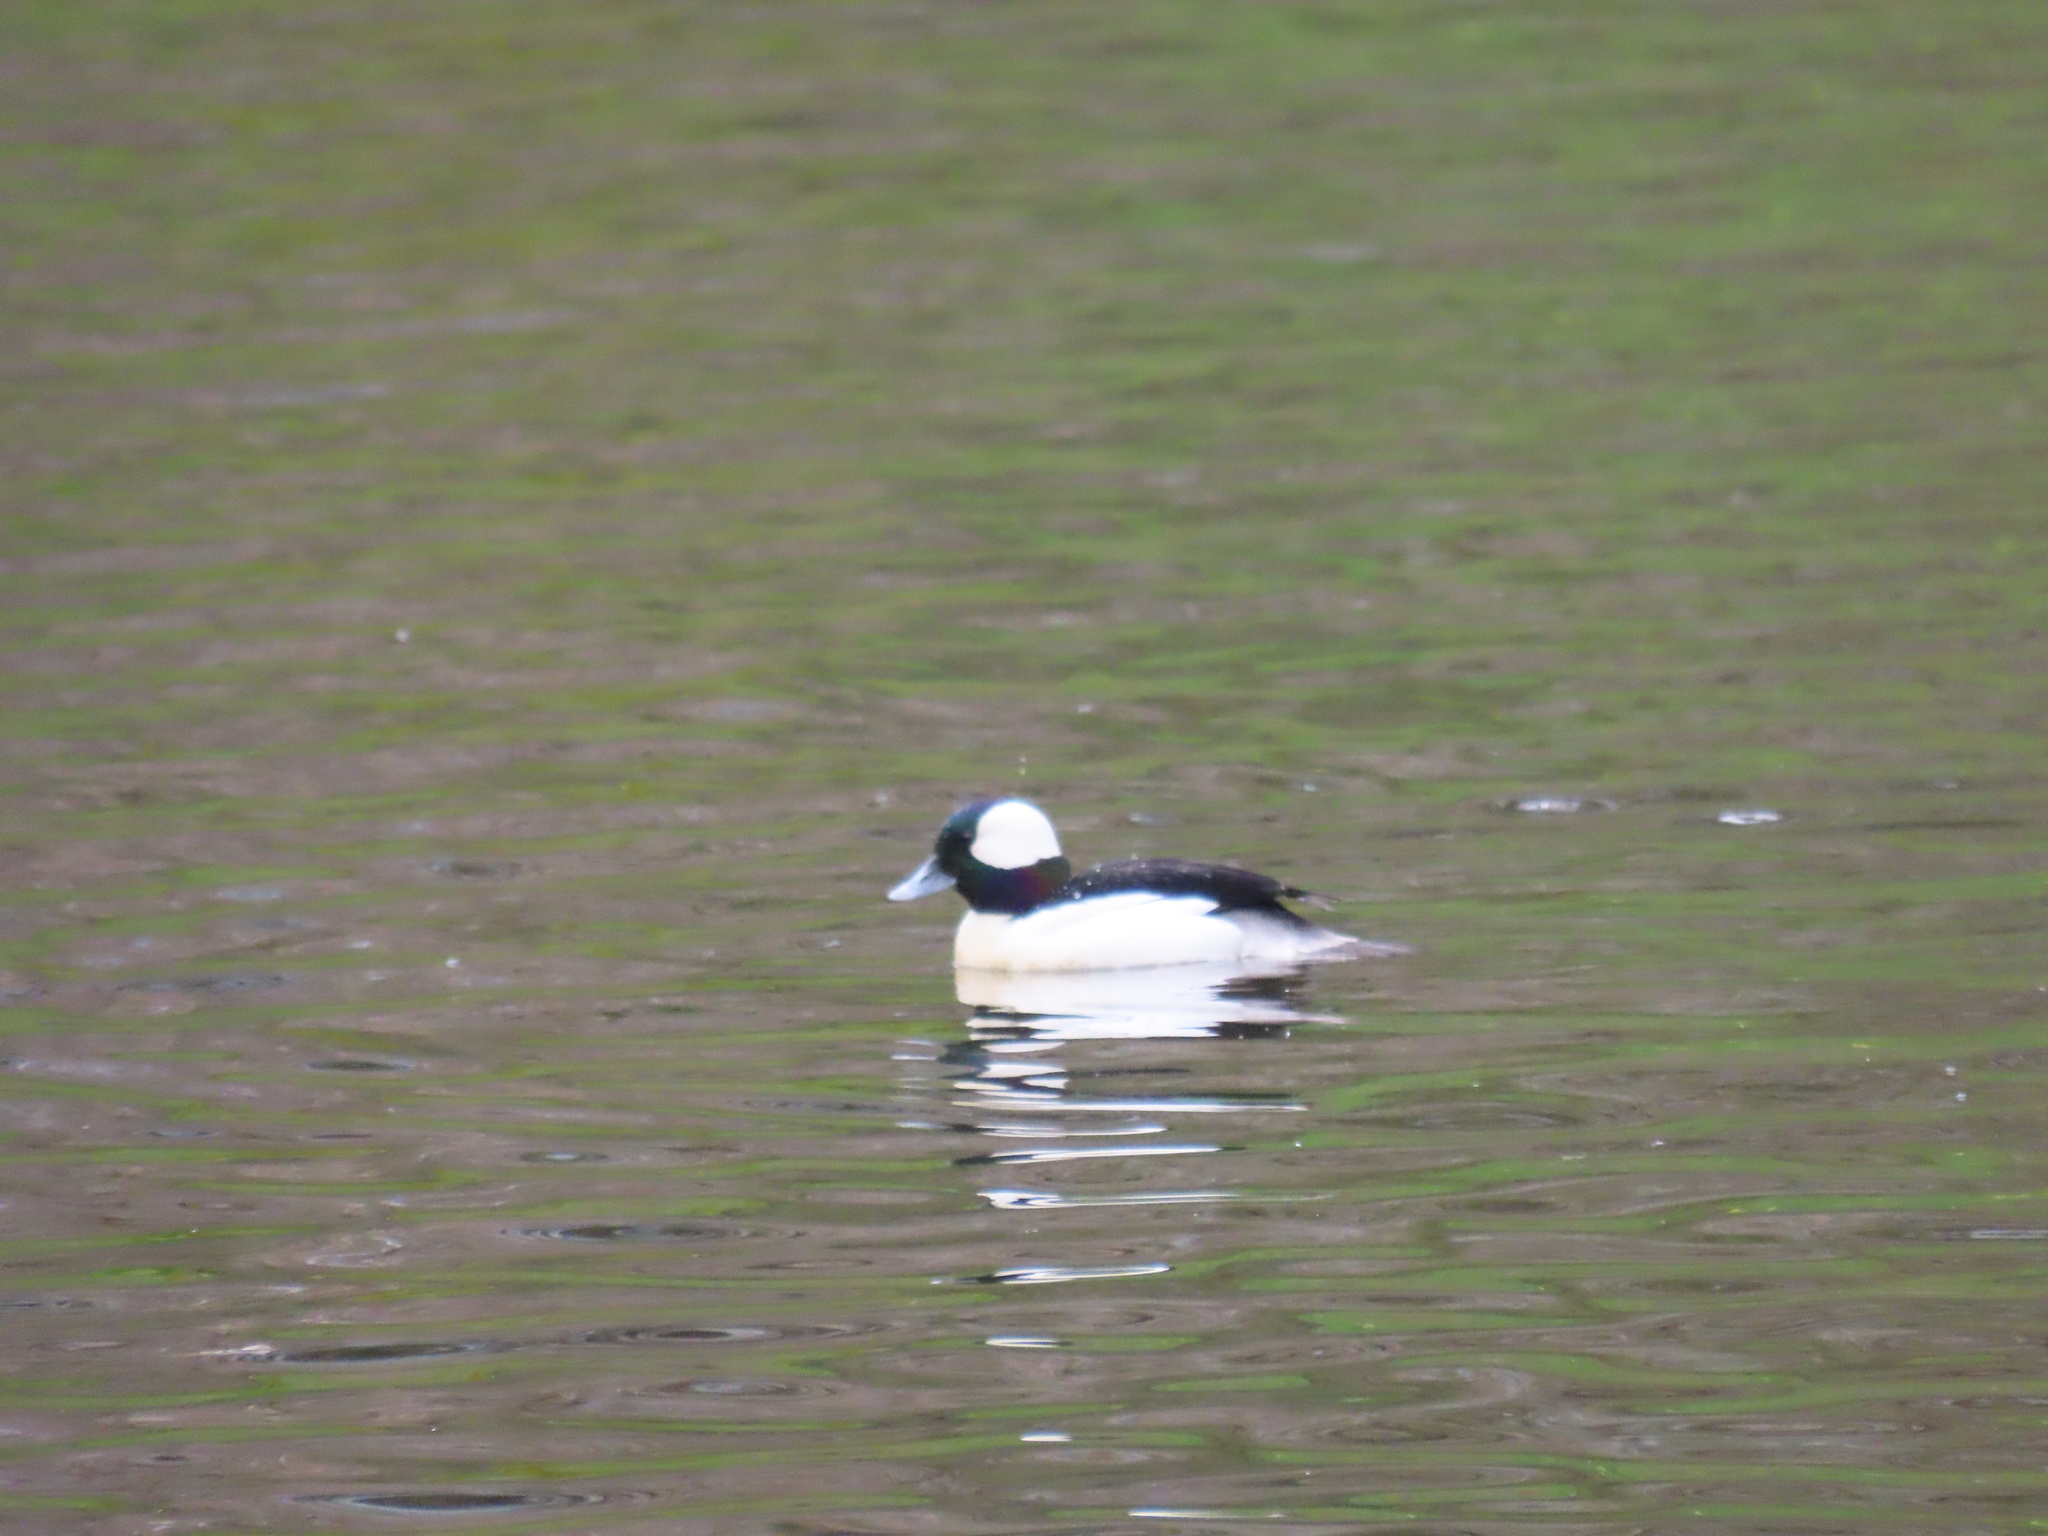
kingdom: Animalia
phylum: Chordata
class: Aves
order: Anseriformes
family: Anatidae
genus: Bucephala
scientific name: Bucephala albeola
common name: Bufflehead
